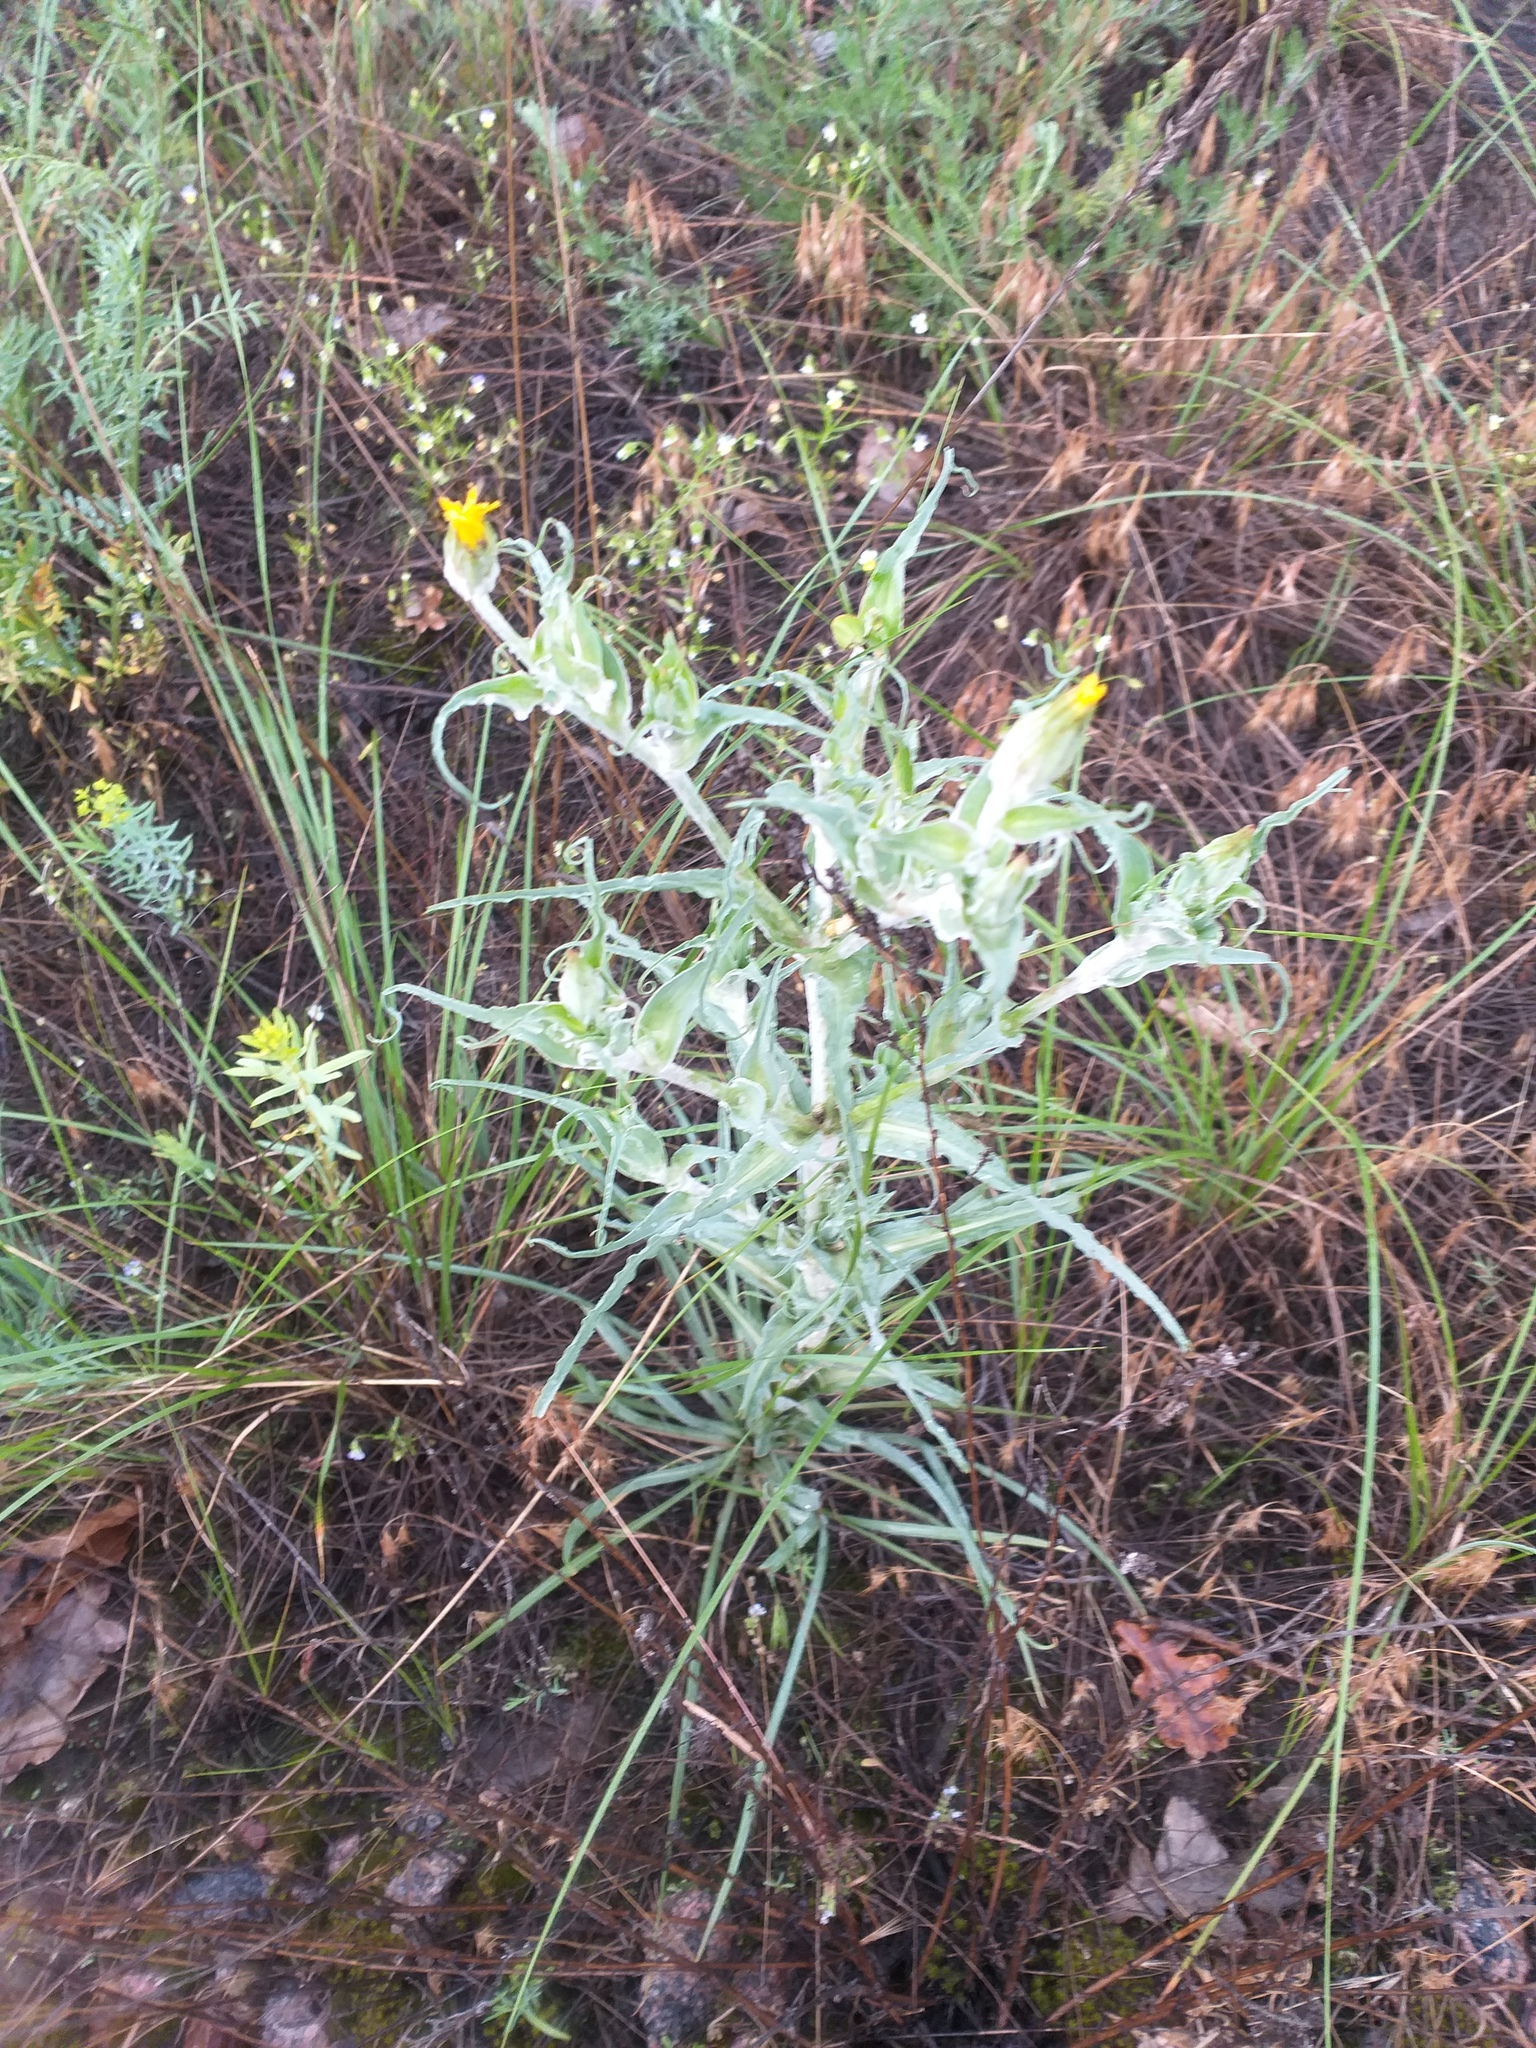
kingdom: Plantae
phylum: Tracheophyta
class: Magnoliopsida
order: Asterales
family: Asteraceae
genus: Tragopogon
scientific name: Tragopogon tanaiticus
